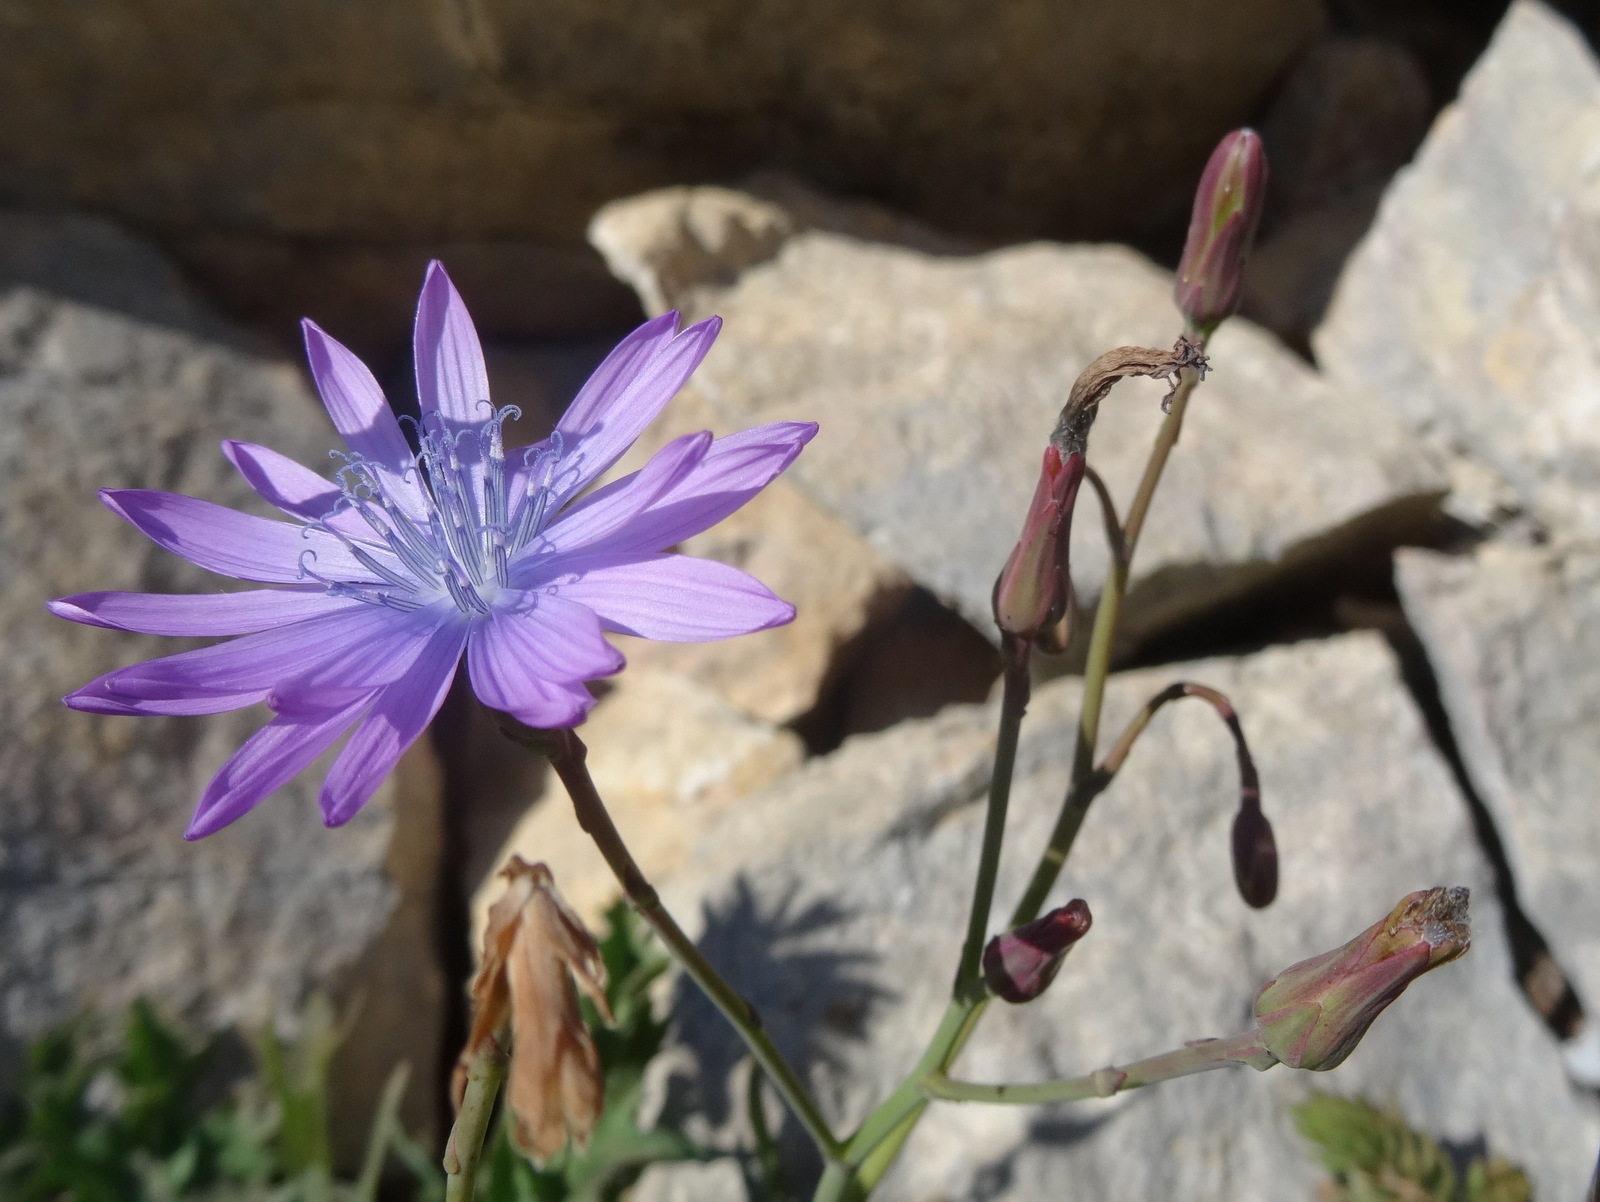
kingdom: Plantae
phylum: Tracheophyta
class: Magnoliopsida
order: Asterales
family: Asteraceae
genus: Lactuca
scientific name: Lactuca perennis
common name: Mountain lettuce
